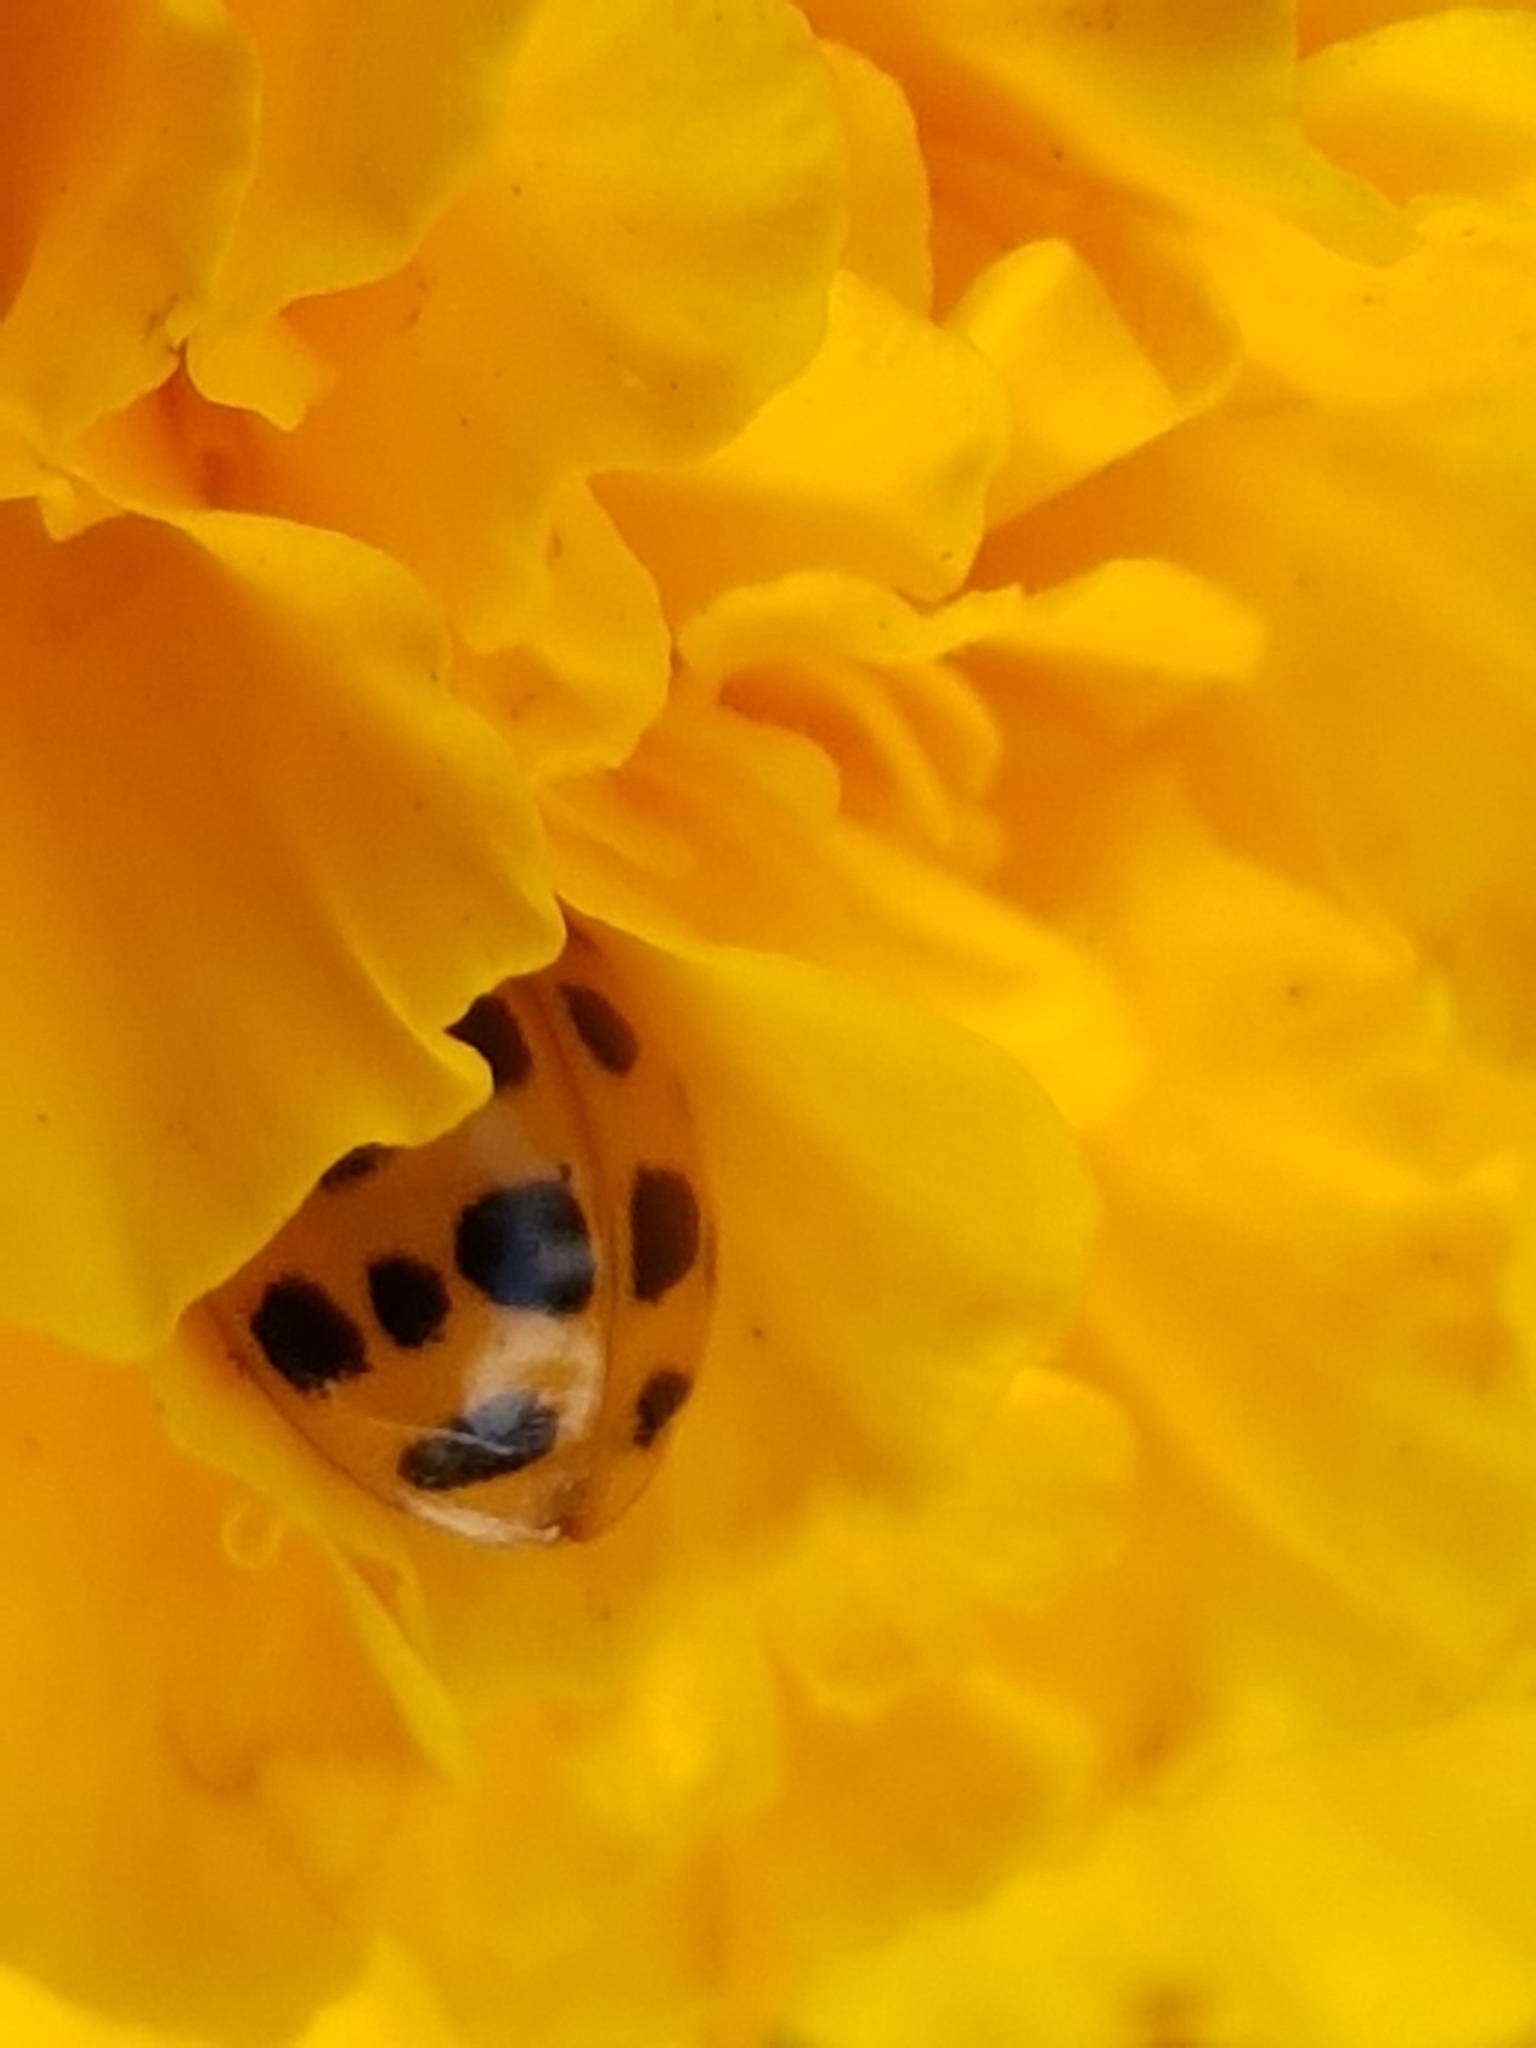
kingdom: Animalia
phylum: Arthropoda
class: Insecta
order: Coleoptera
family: Coccinellidae
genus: Harmonia
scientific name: Harmonia axyridis
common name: Harlequin ladybird
